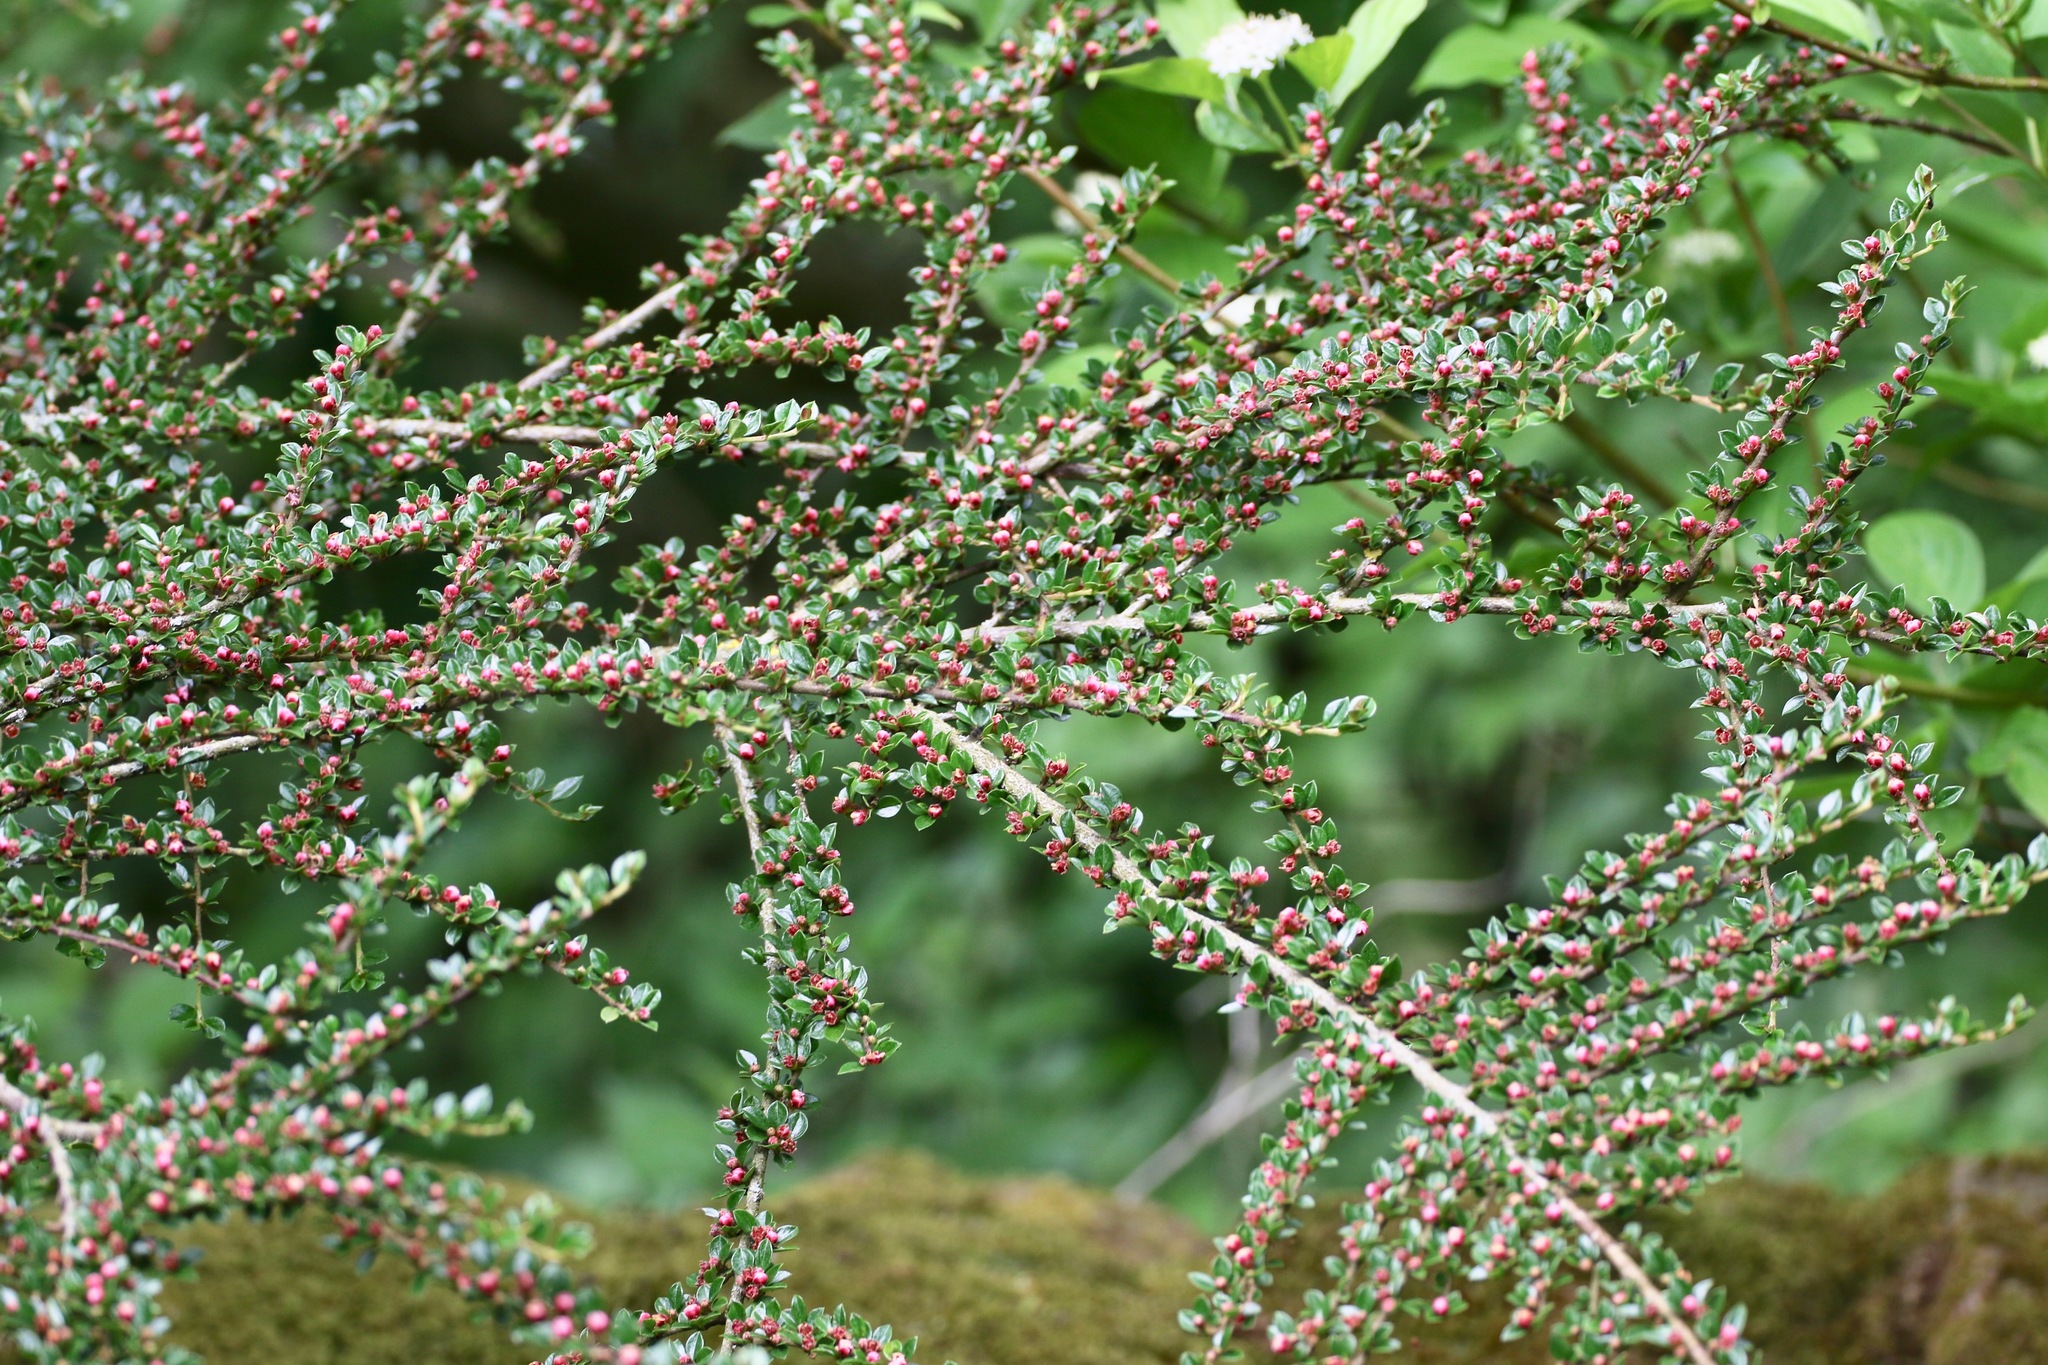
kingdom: Plantae
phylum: Tracheophyta
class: Magnoliopsida
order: Rosales
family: Rosaceae
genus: Cotoneaster
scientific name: Cotoneaster horizontalis
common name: Wall cotoneaster
